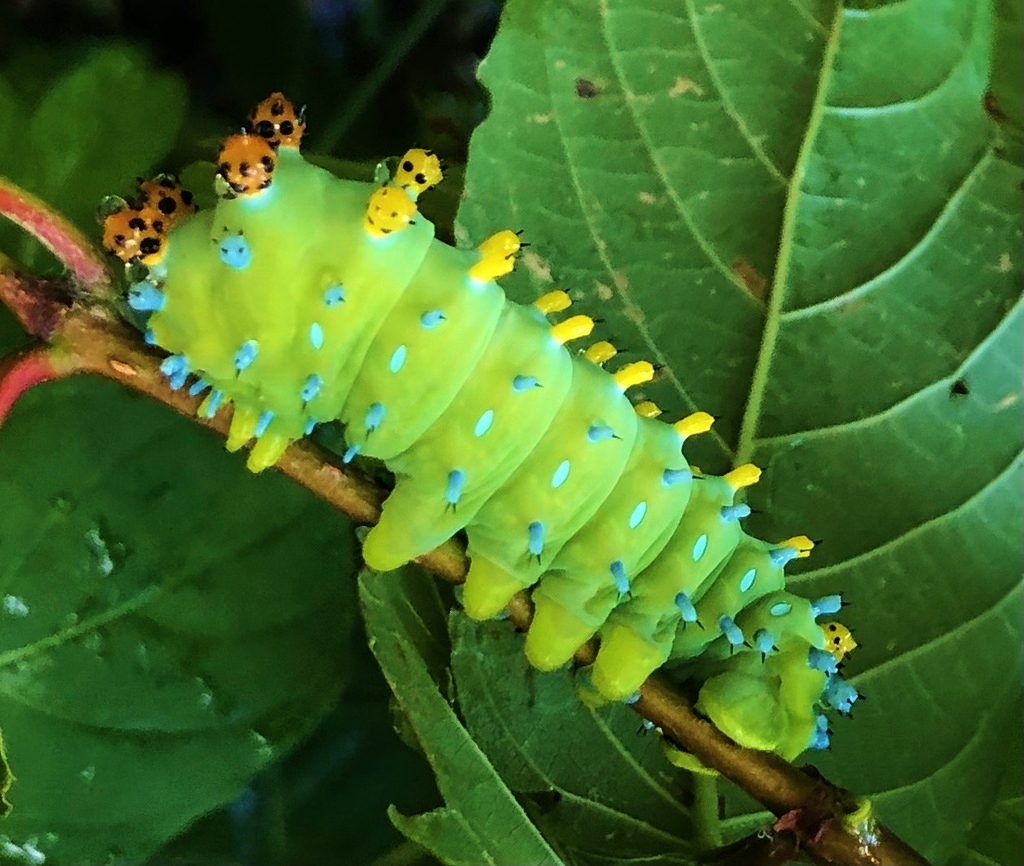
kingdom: Animalia
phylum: Arthropoda
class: Insecta
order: Lepidoptera
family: Saturniidae
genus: Hyalophora
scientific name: Hyalophora cecropia
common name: Cecropia silkmoth
